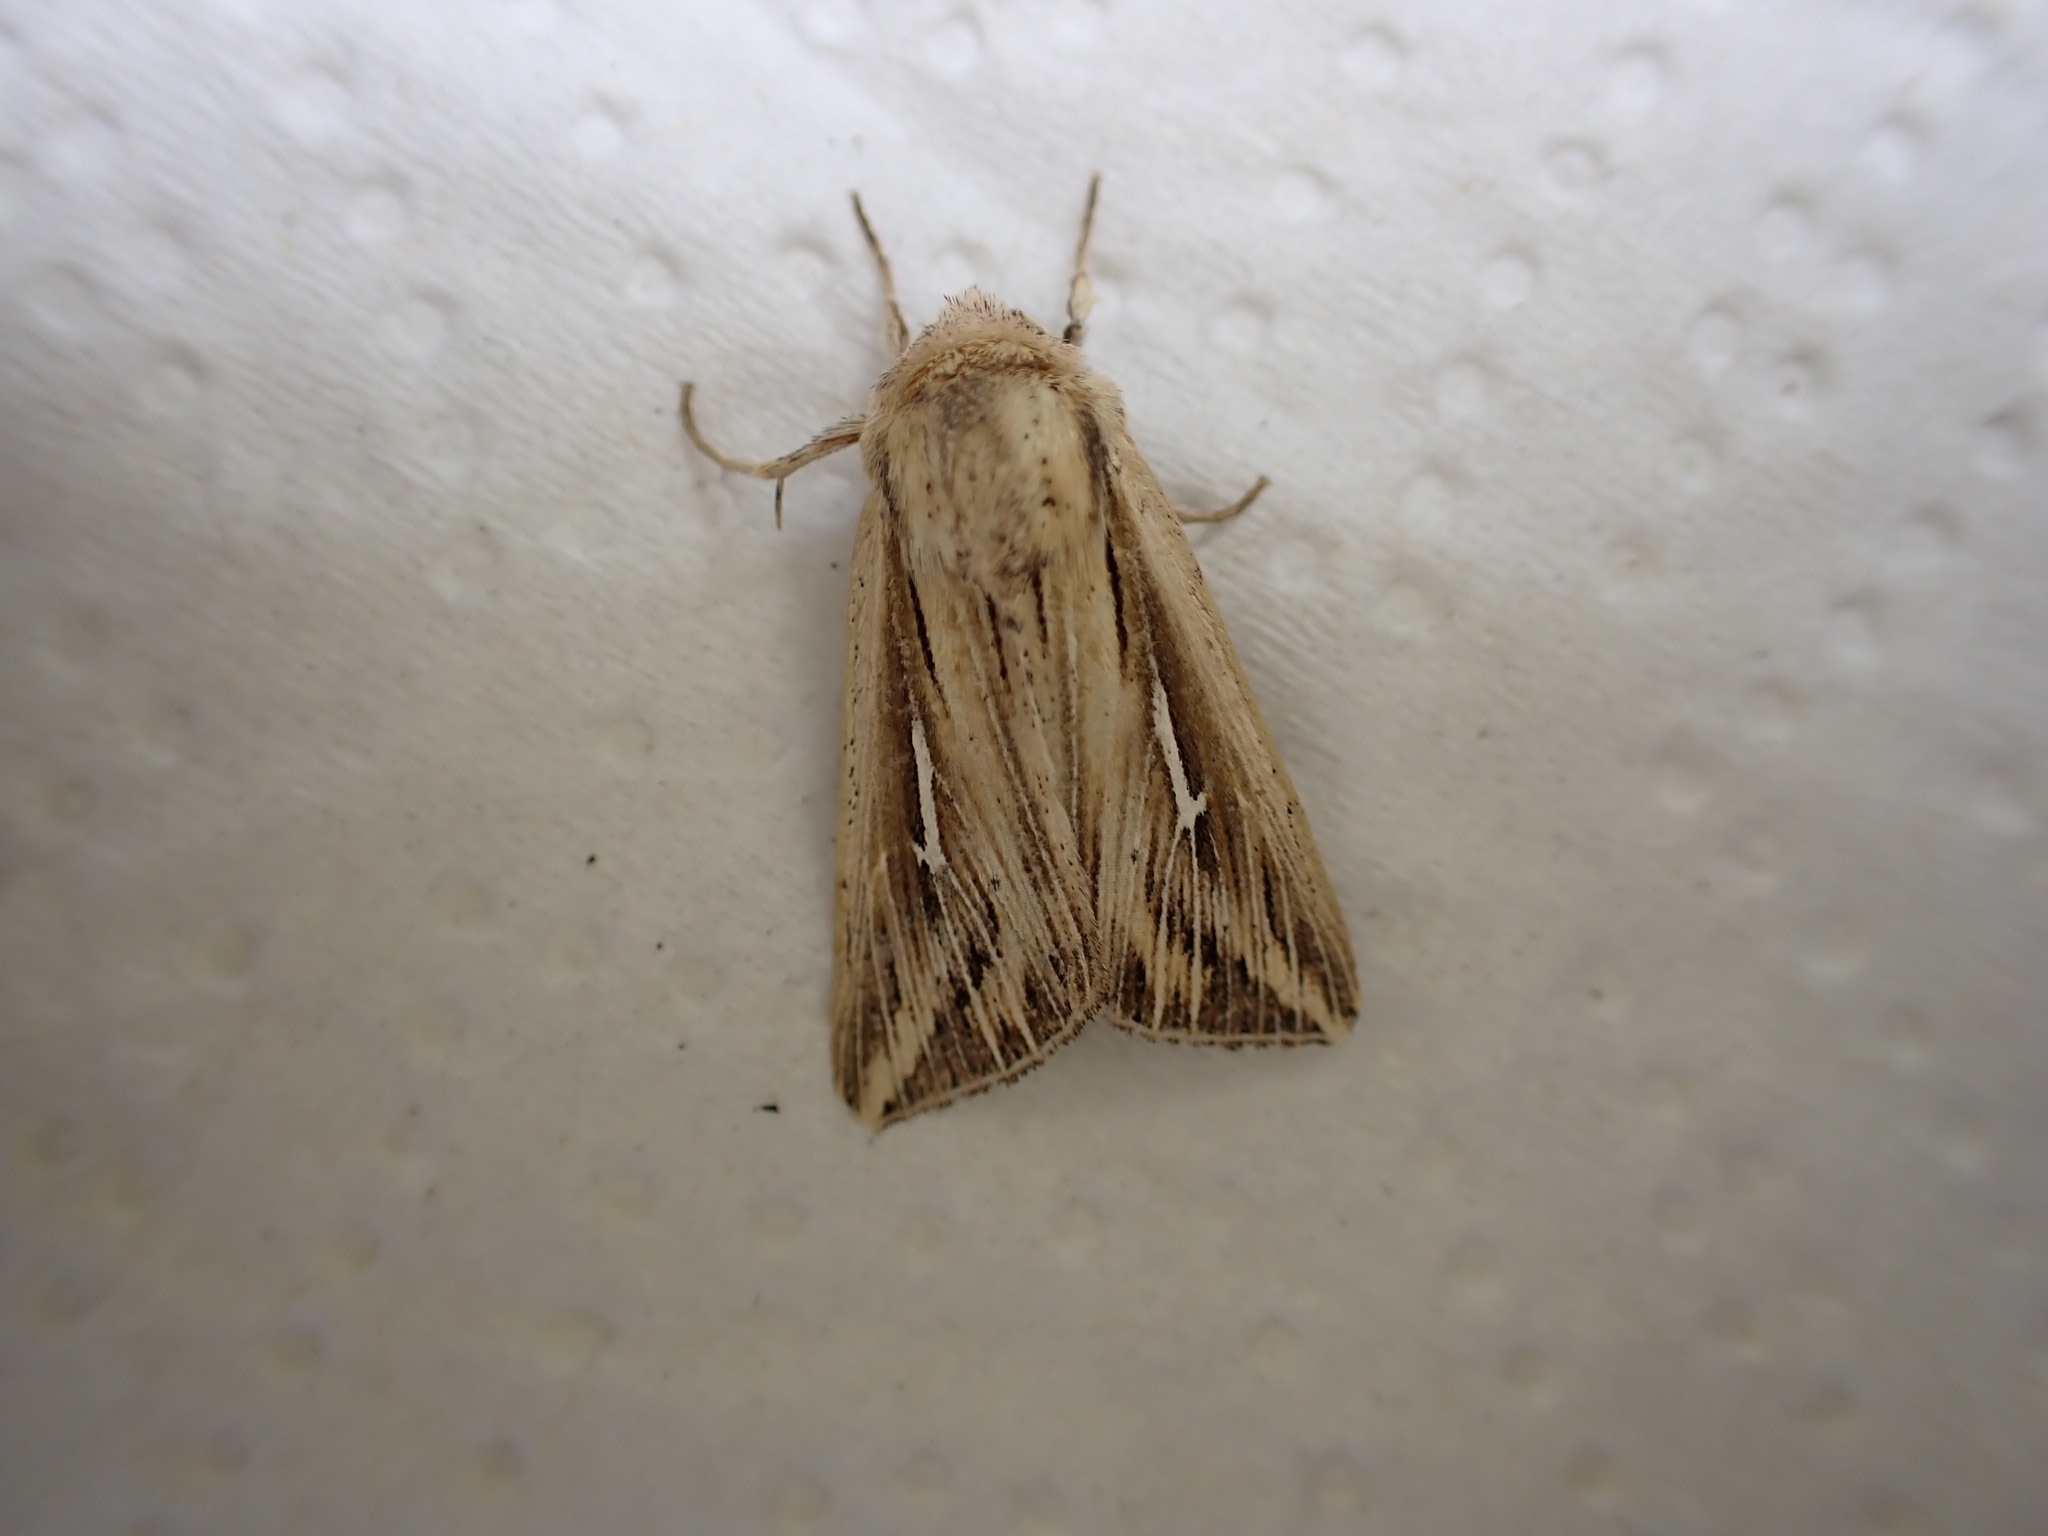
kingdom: Animalia
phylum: Arthropoda
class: Insecta
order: Lepidoptera
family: Noctuidae
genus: Mythimna
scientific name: Mythimna l-album
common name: L-album wainscot
